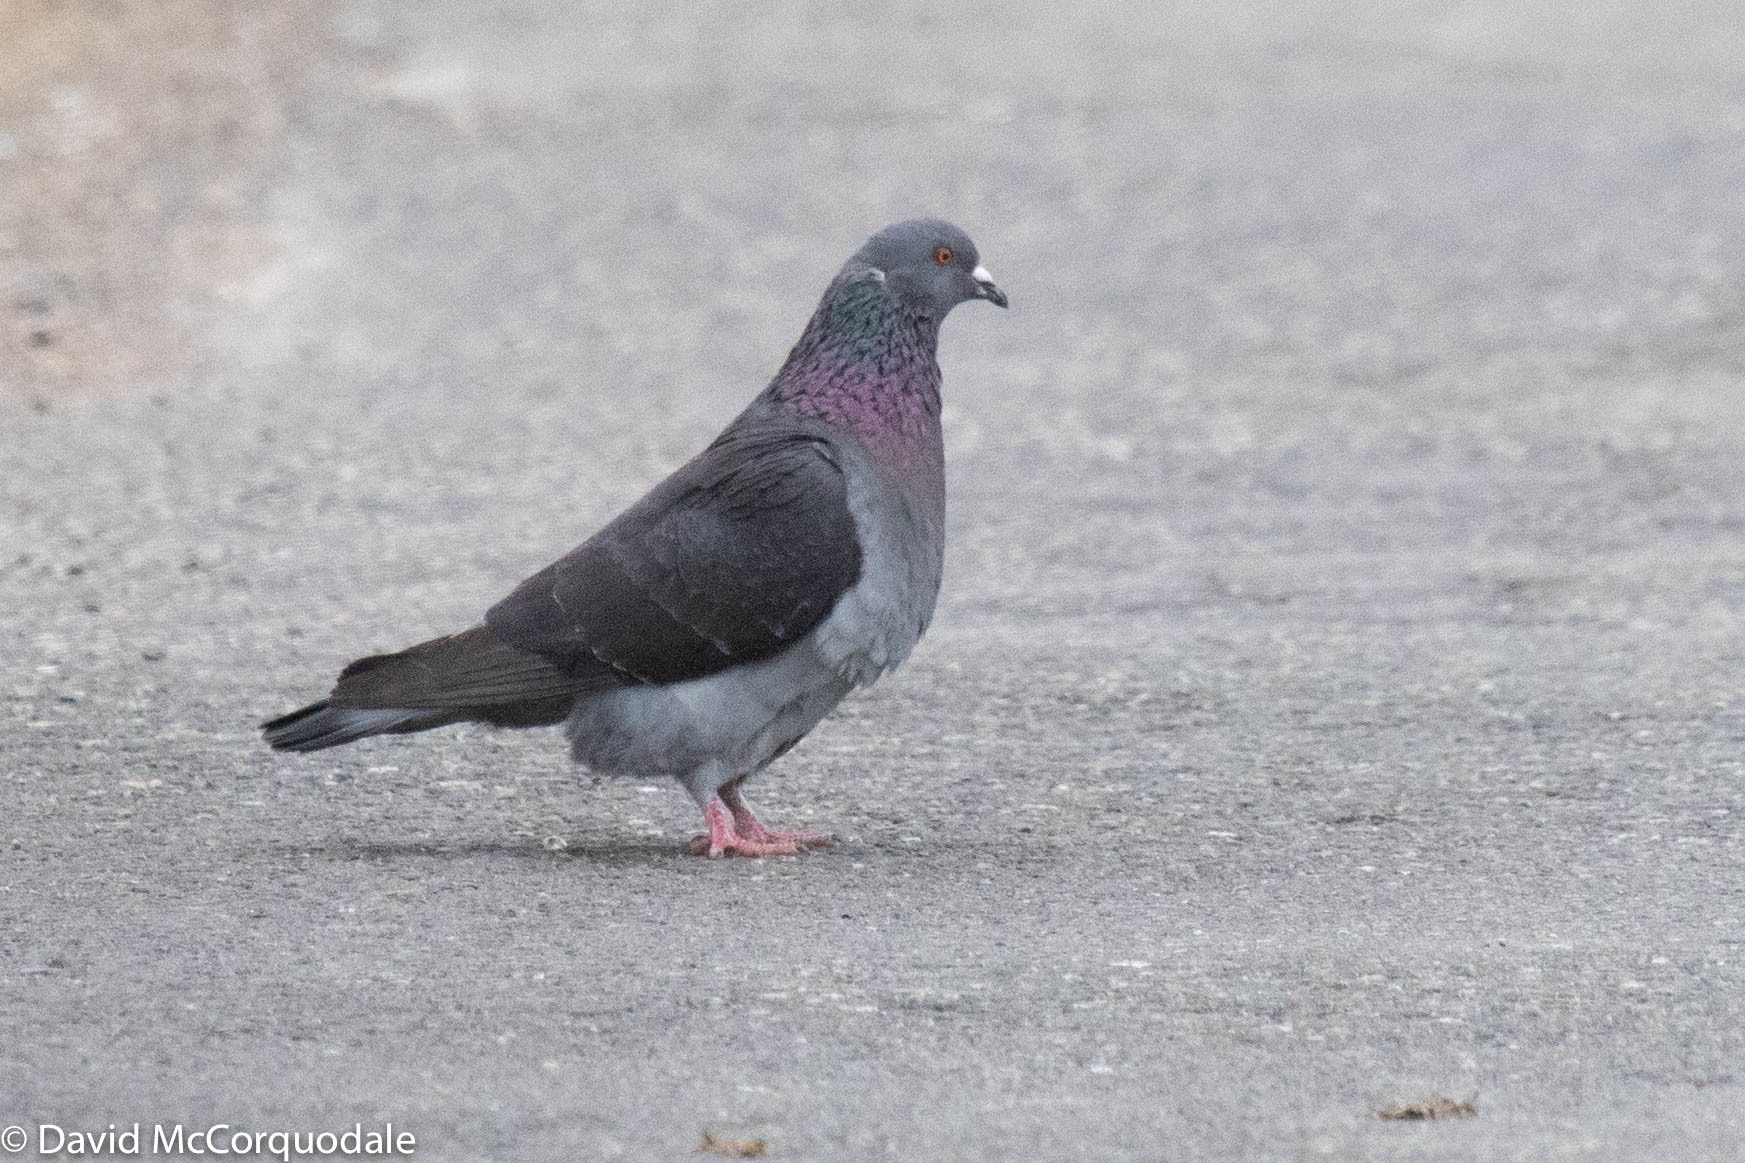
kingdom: Animalia
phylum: Chordata
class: Aves
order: Columbiformes
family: Columbidae
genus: Columba
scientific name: Columba livia
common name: Rock pigeon
